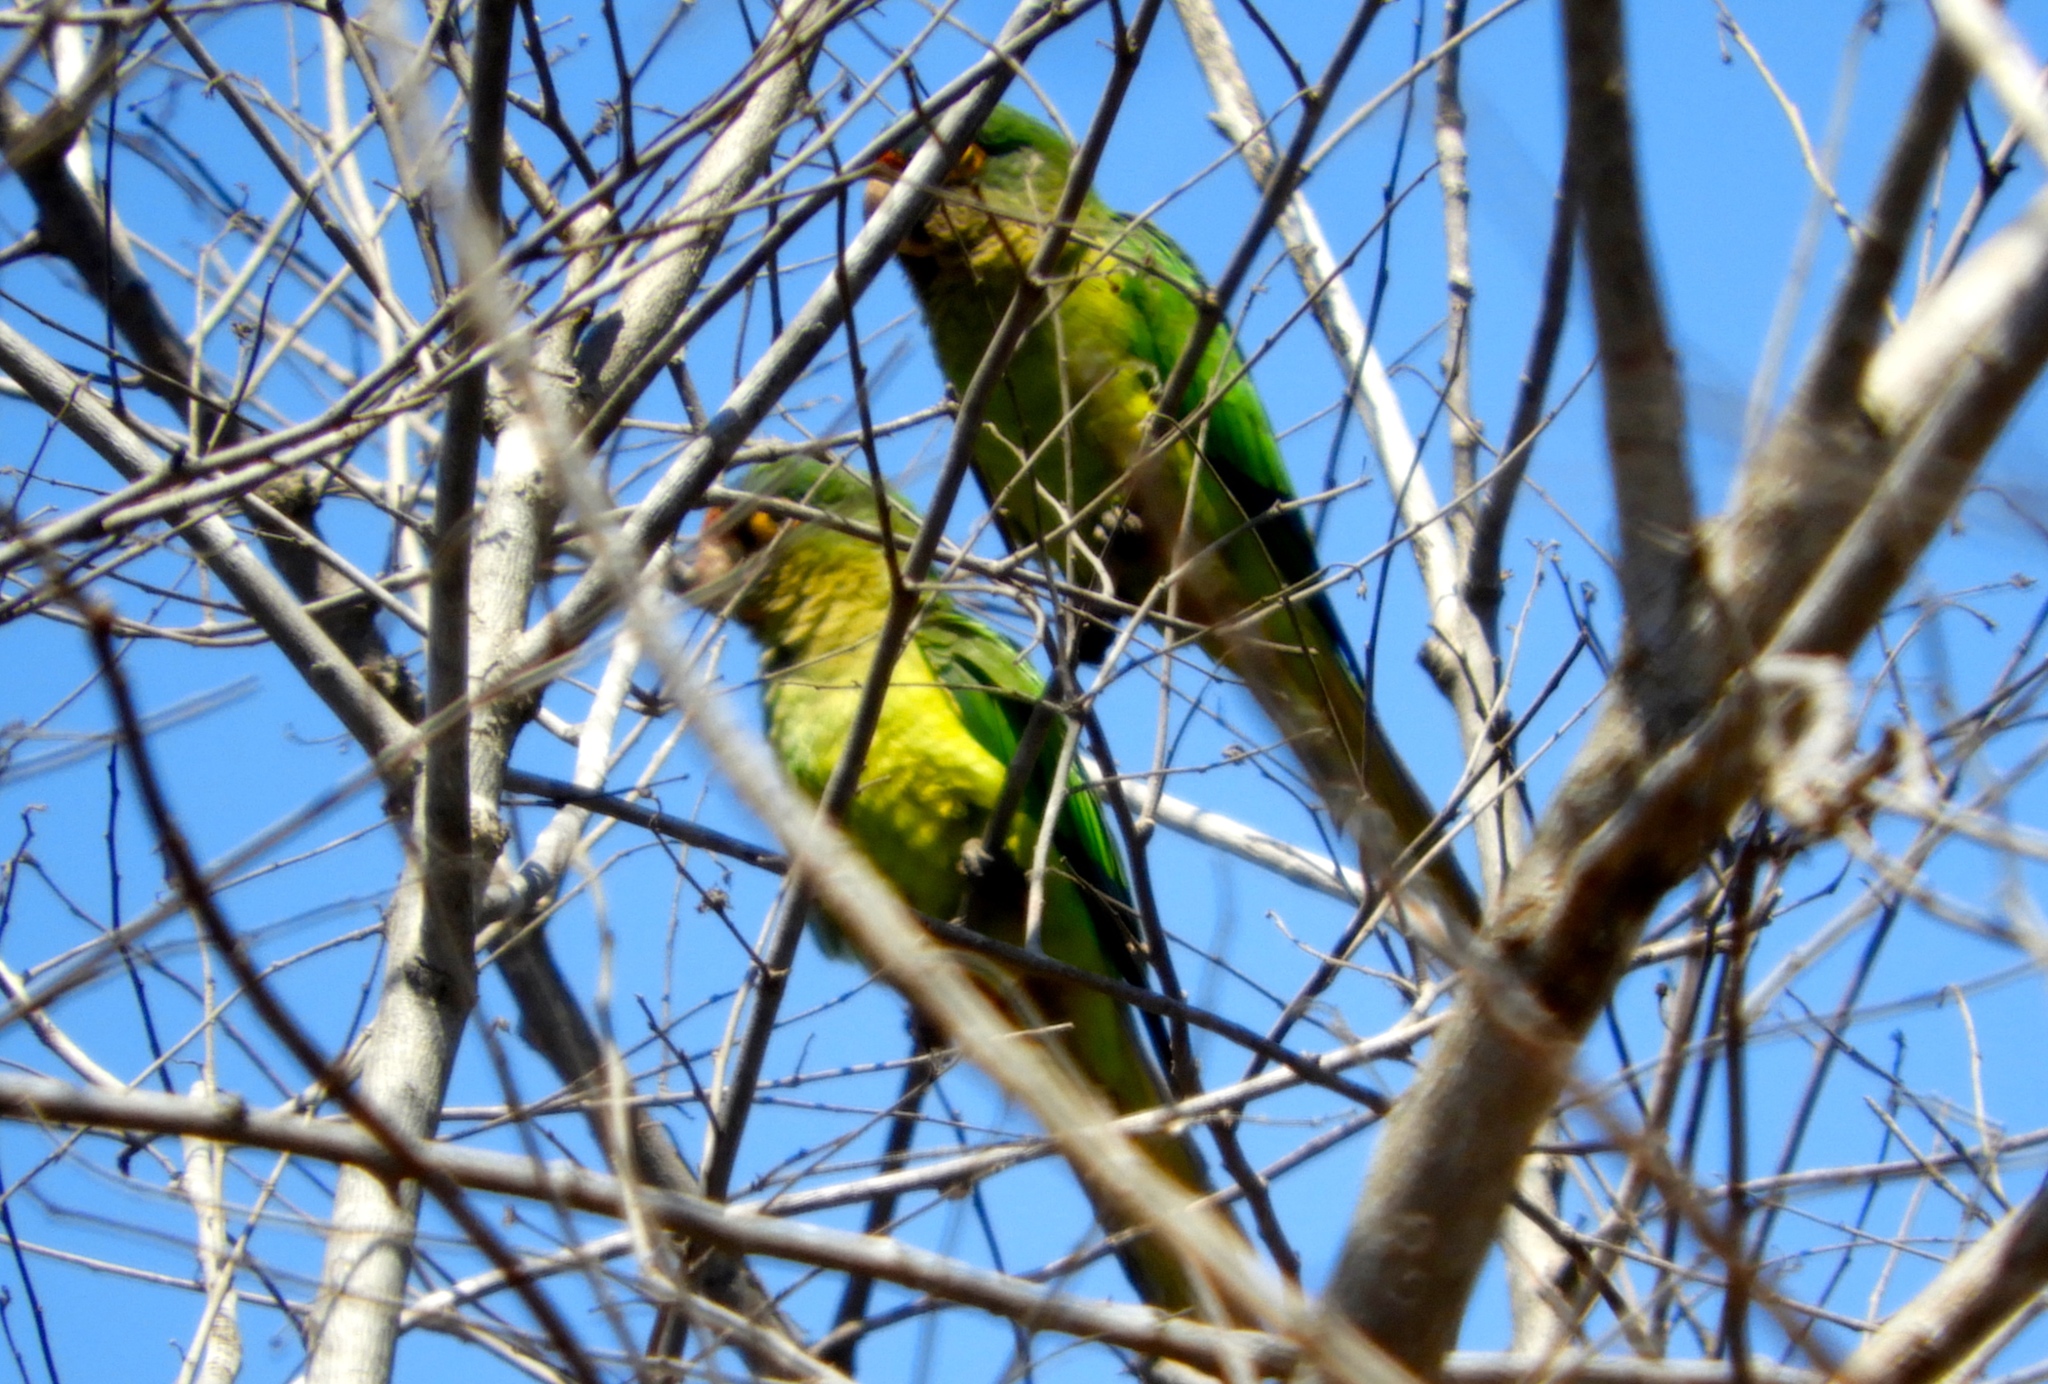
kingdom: Animalia
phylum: Chordata
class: Aves
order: Psittaciformes
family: Psittacidae
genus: Aratinga
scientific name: Aratinga canicularis
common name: Orange-fronted parakeet
